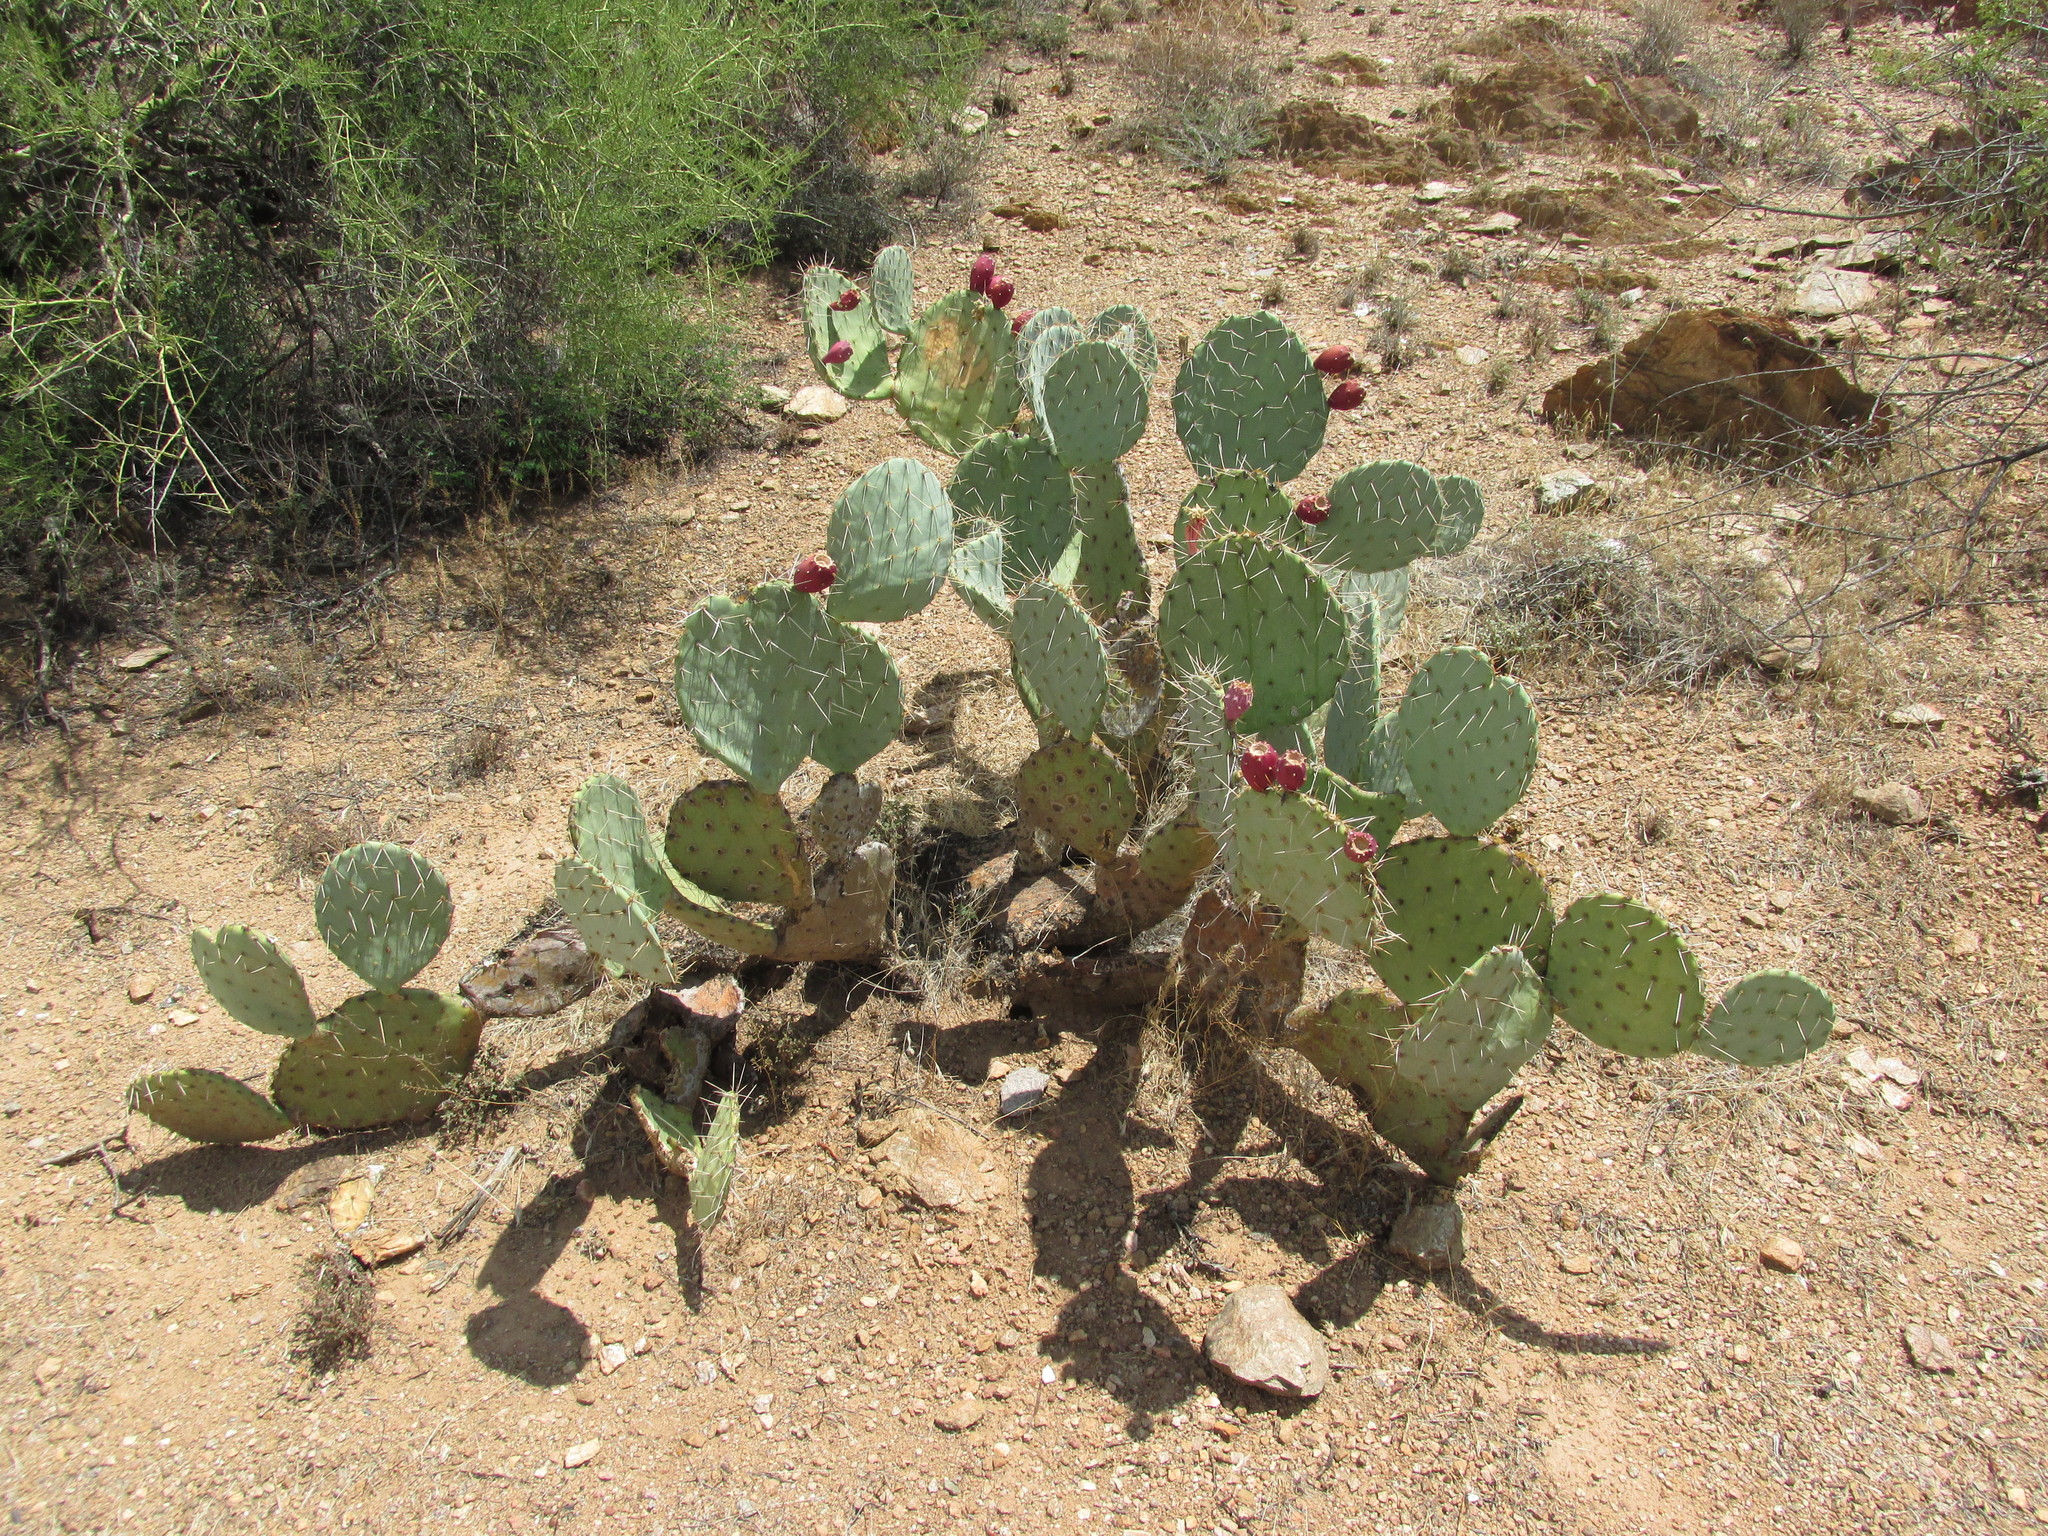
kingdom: Plantae
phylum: Tracheophyta
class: Magnoliopsida
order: Caryophyllales
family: Cactaceae
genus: Opuntia
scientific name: Opuntia engelmannii
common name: Cactus-apple
